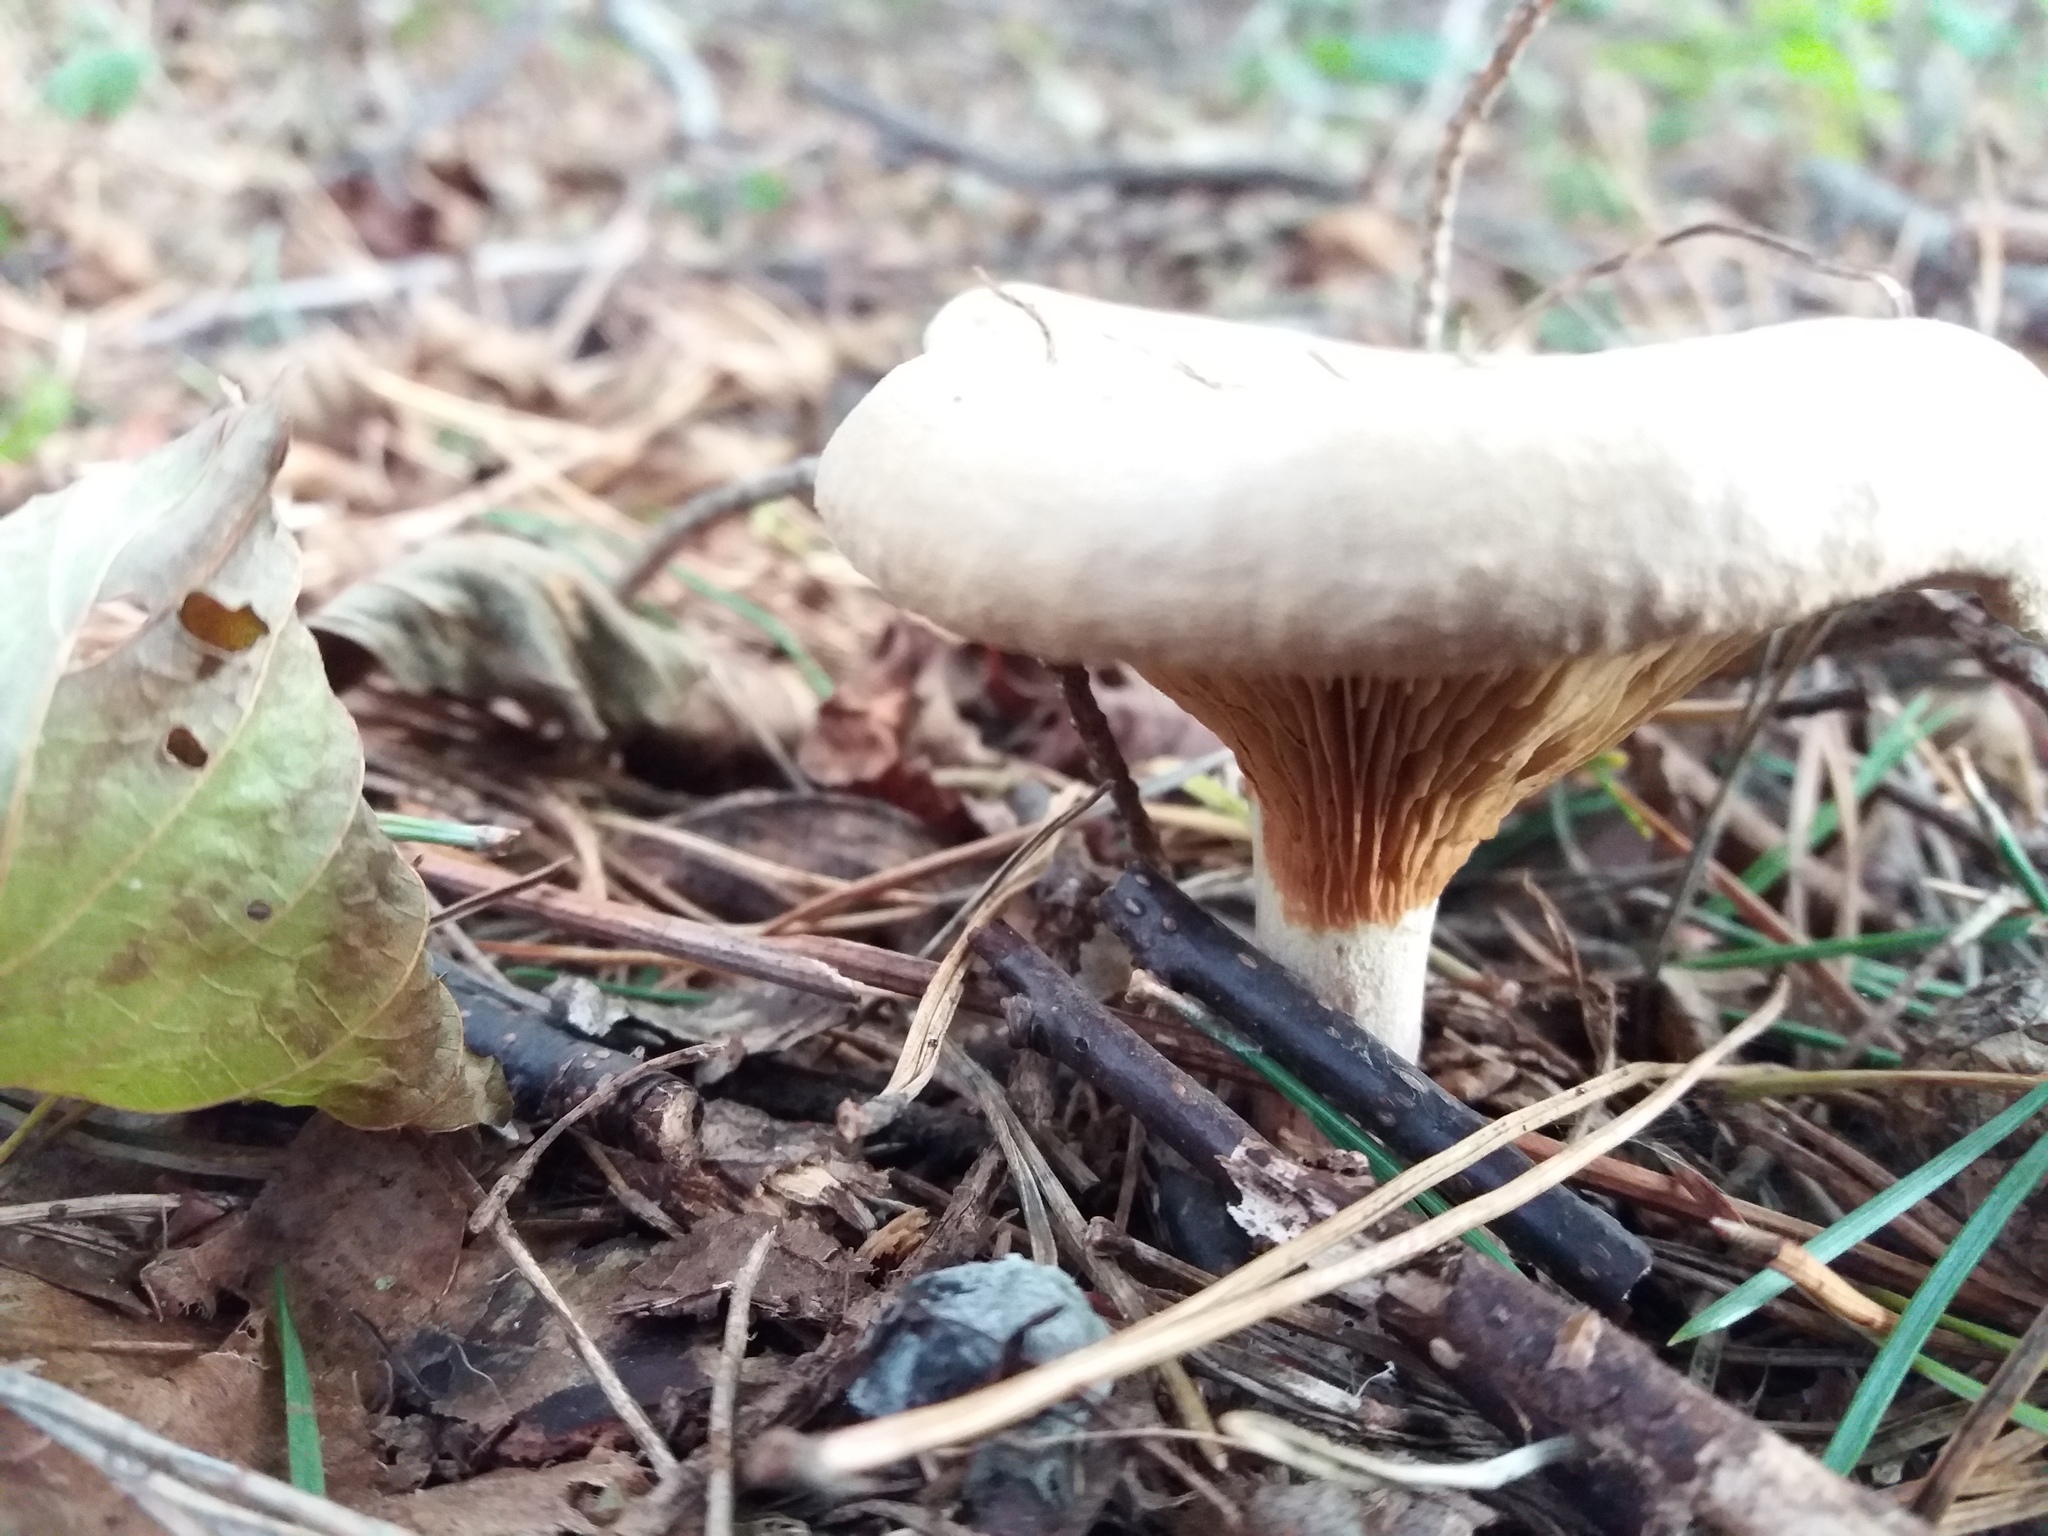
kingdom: Fungi
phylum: Basidiomycota
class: Agaricomycetes
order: Boletales
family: Paxillaceae
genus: Paxillus
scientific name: Paxillus involutus
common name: Brown roll rim
